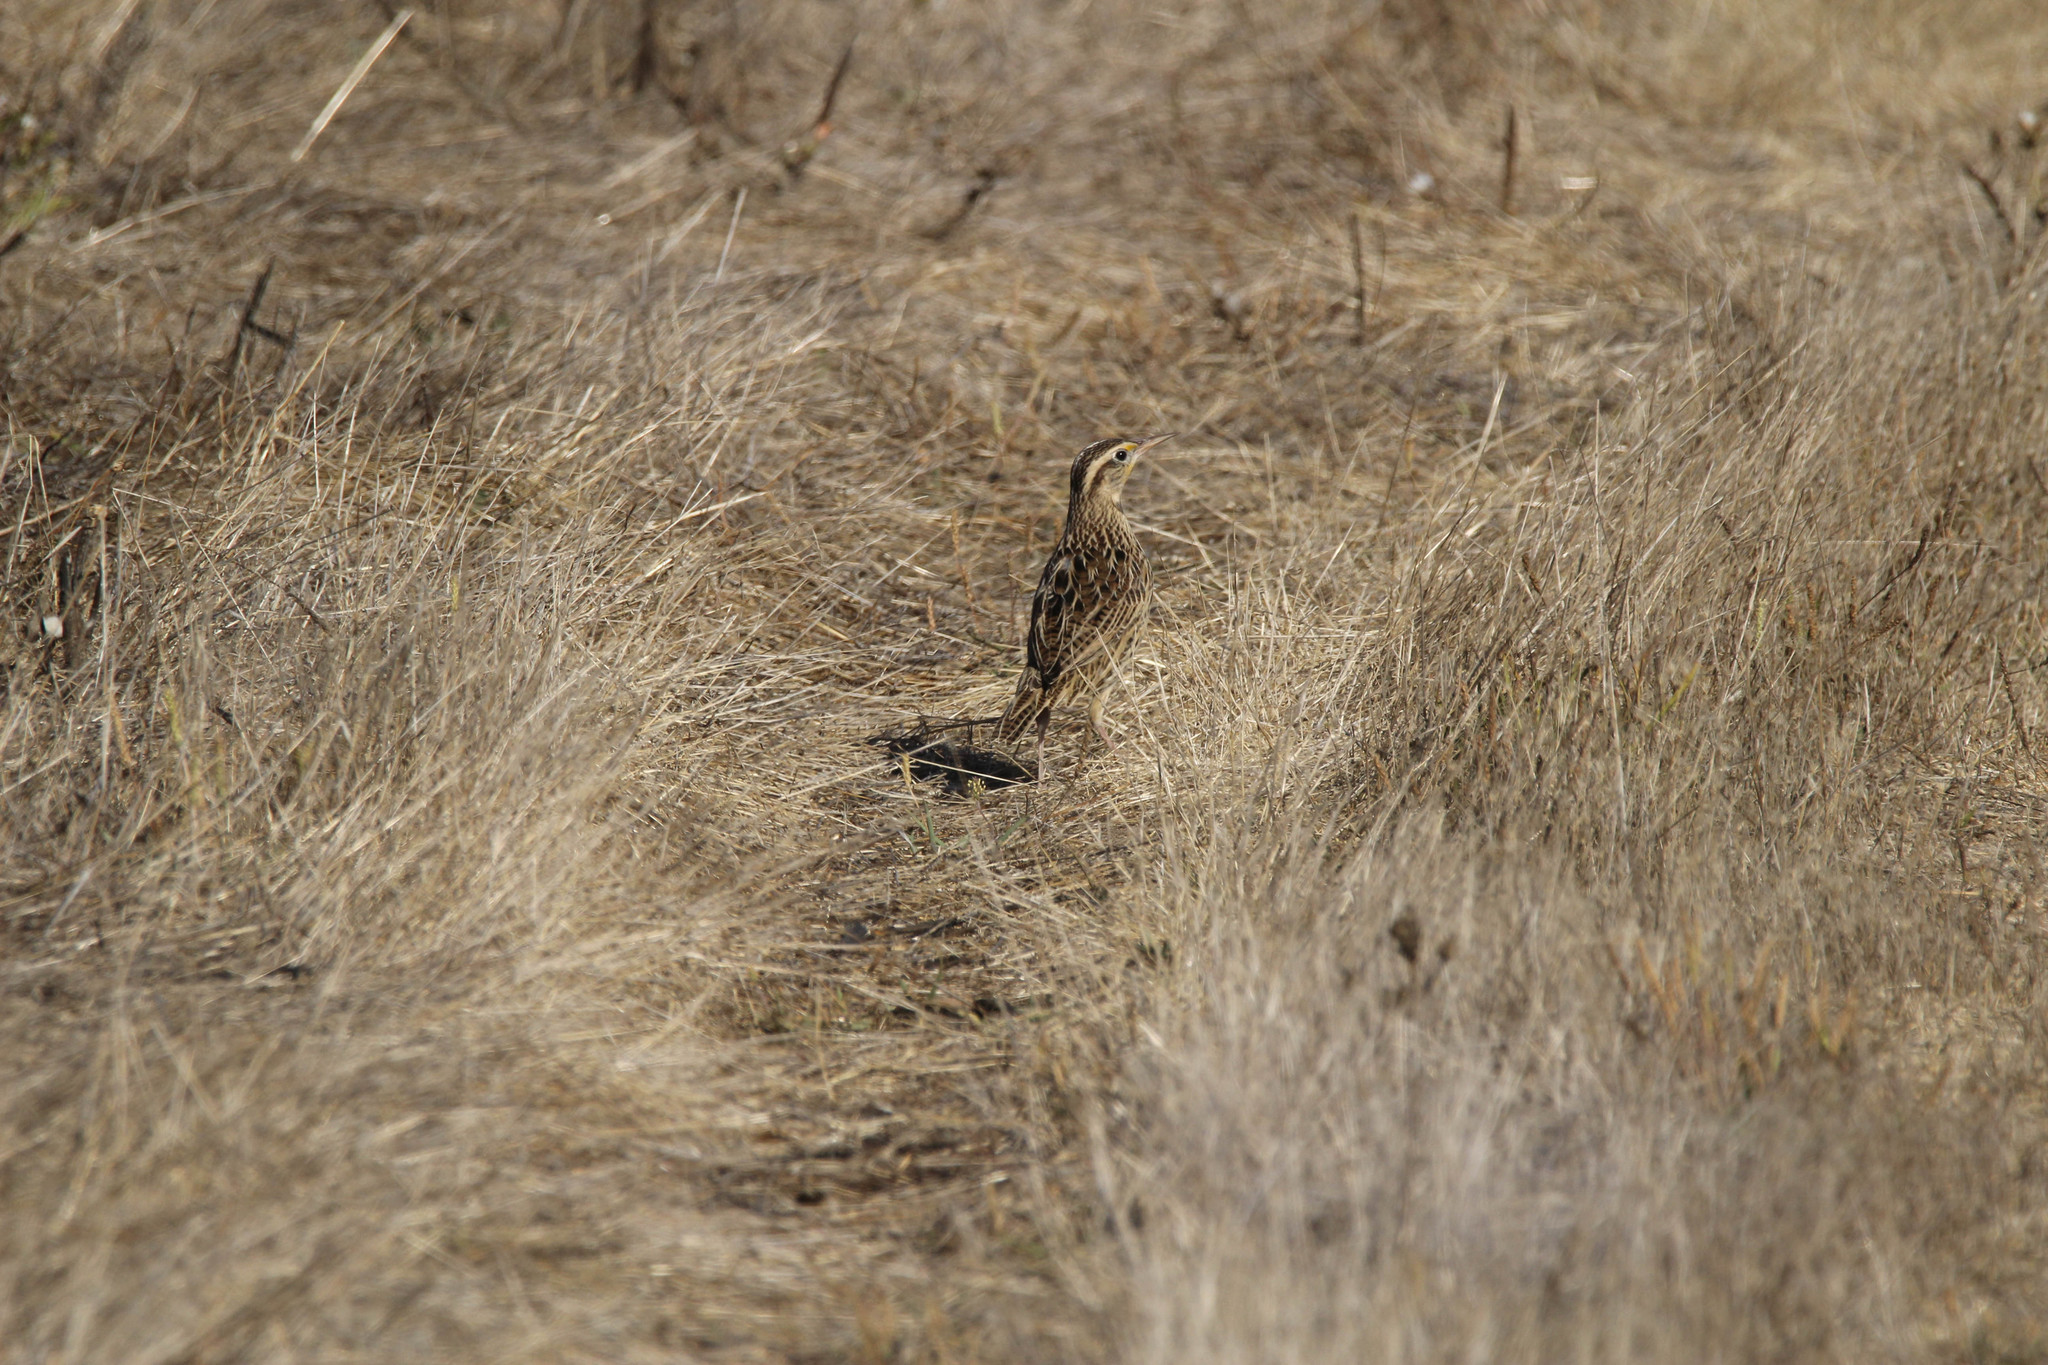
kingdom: Animalia
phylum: Chordata
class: Aves
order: Passeriformes
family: Icteridae
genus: Sturnella
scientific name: Sturnella neglecta
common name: Western meadowlark
